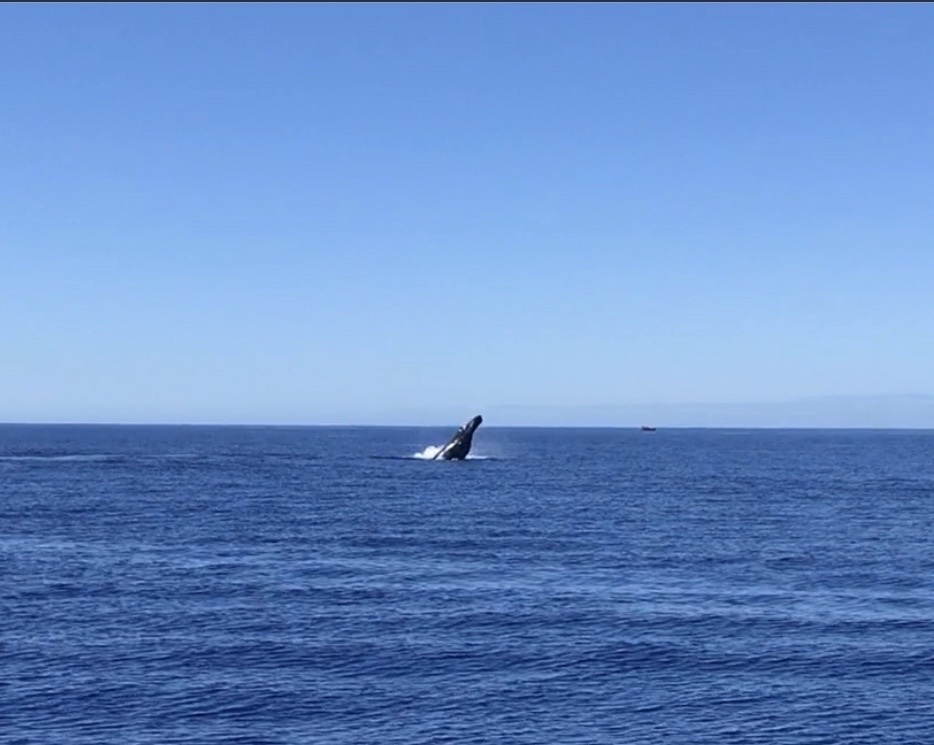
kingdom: Animalia
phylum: Chordata
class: Mammalia
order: Cetacea
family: Balaenopteridae
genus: Megaptera
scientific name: Megaptera novaeangliae
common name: Humpback whale
